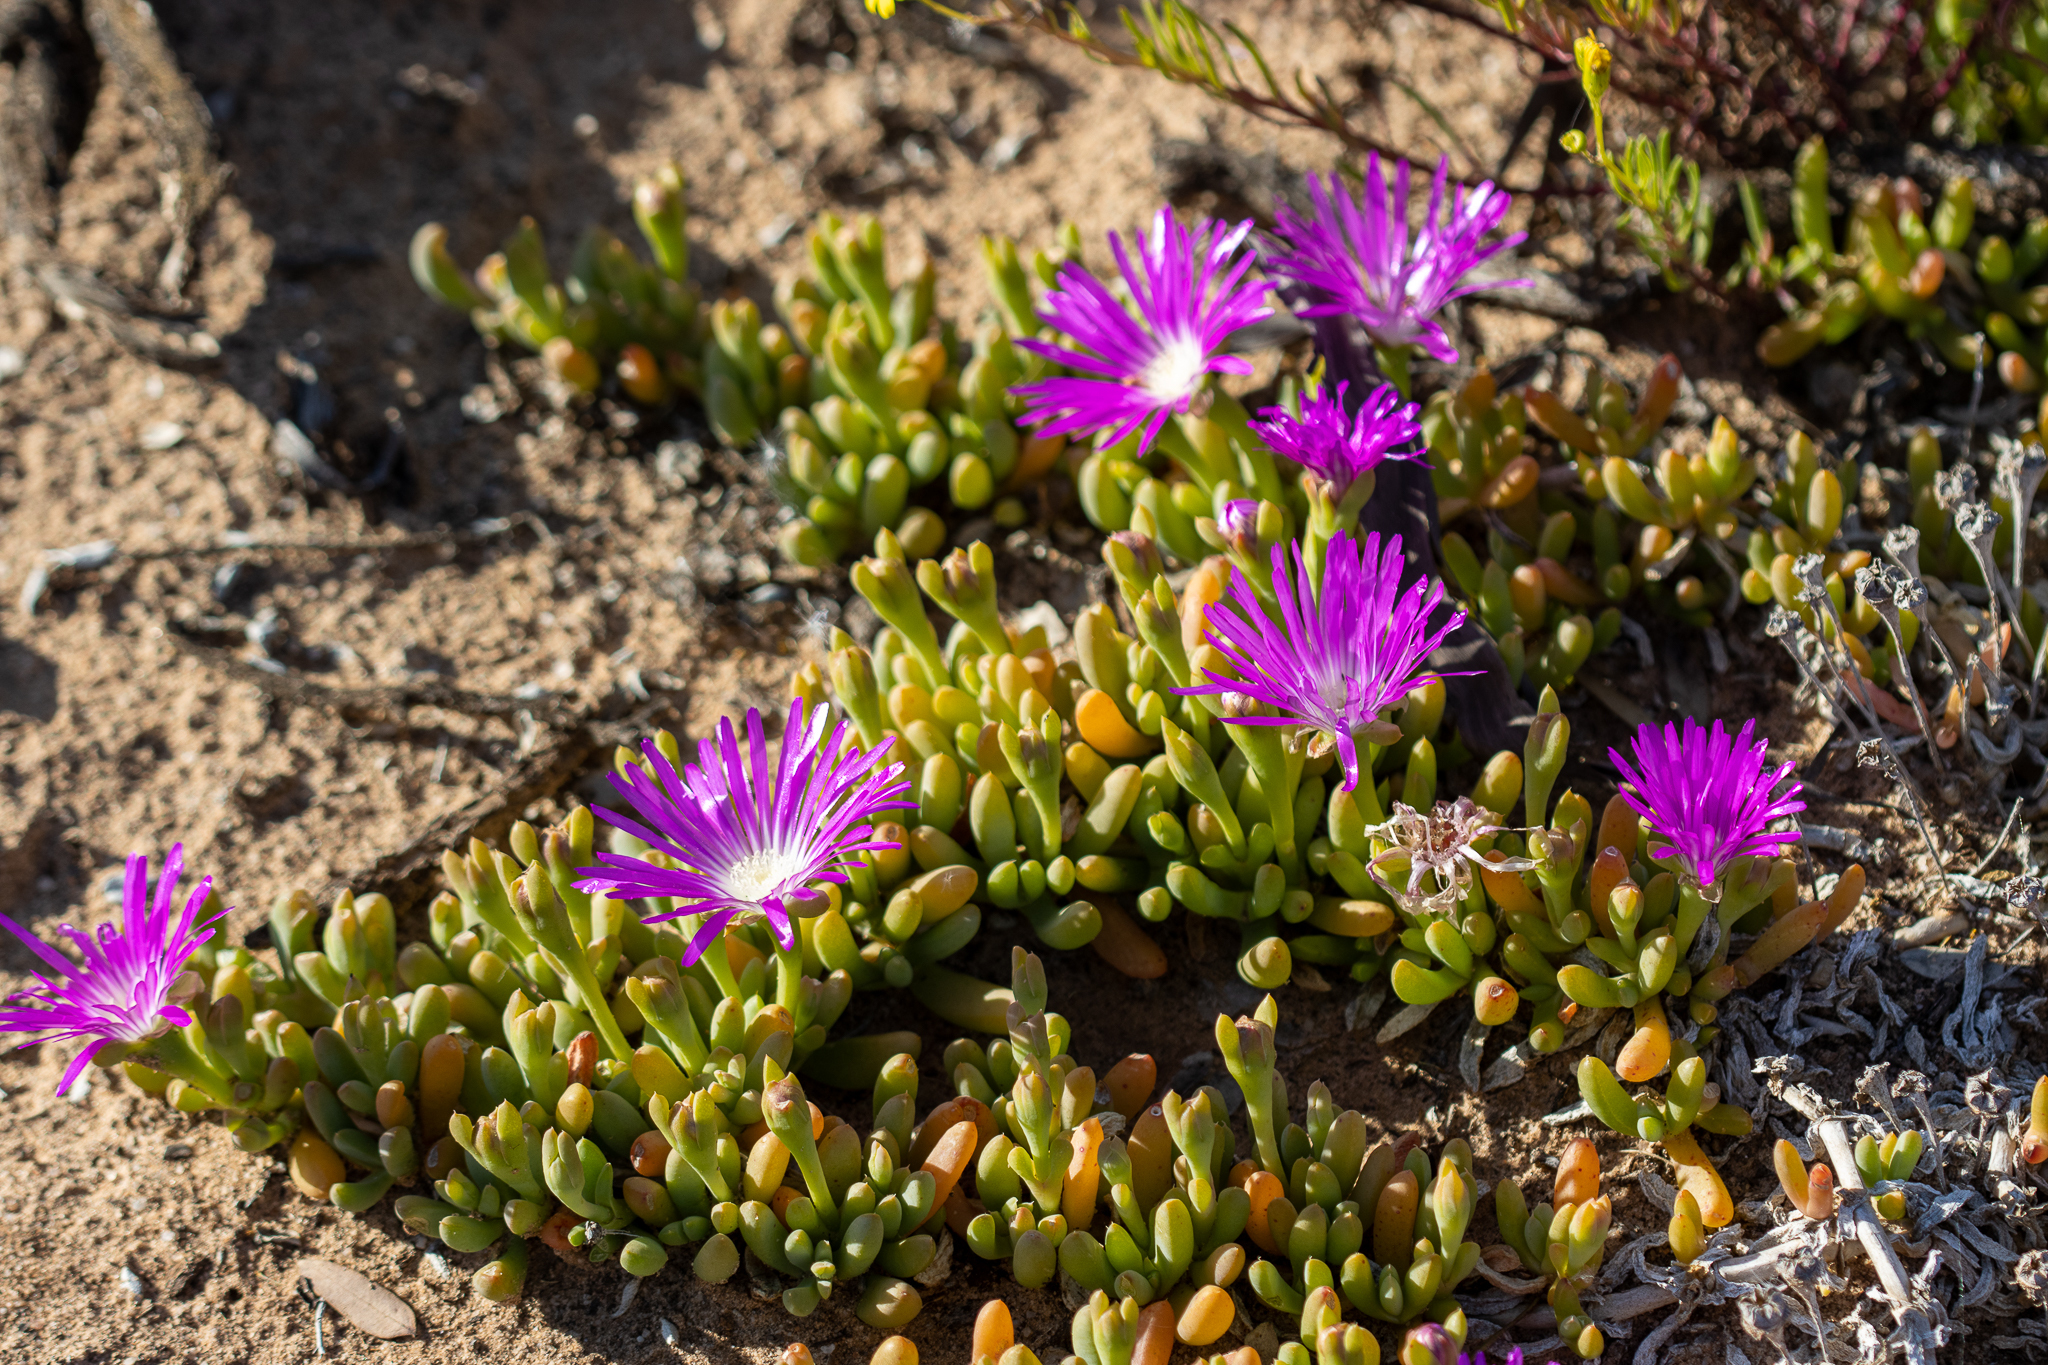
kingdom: Plantae
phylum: Tracheophyta
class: Magnoliopsida
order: Caryophyllales
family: Aizoaceae
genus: Disphyma
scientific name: Disphyma clavellatum
